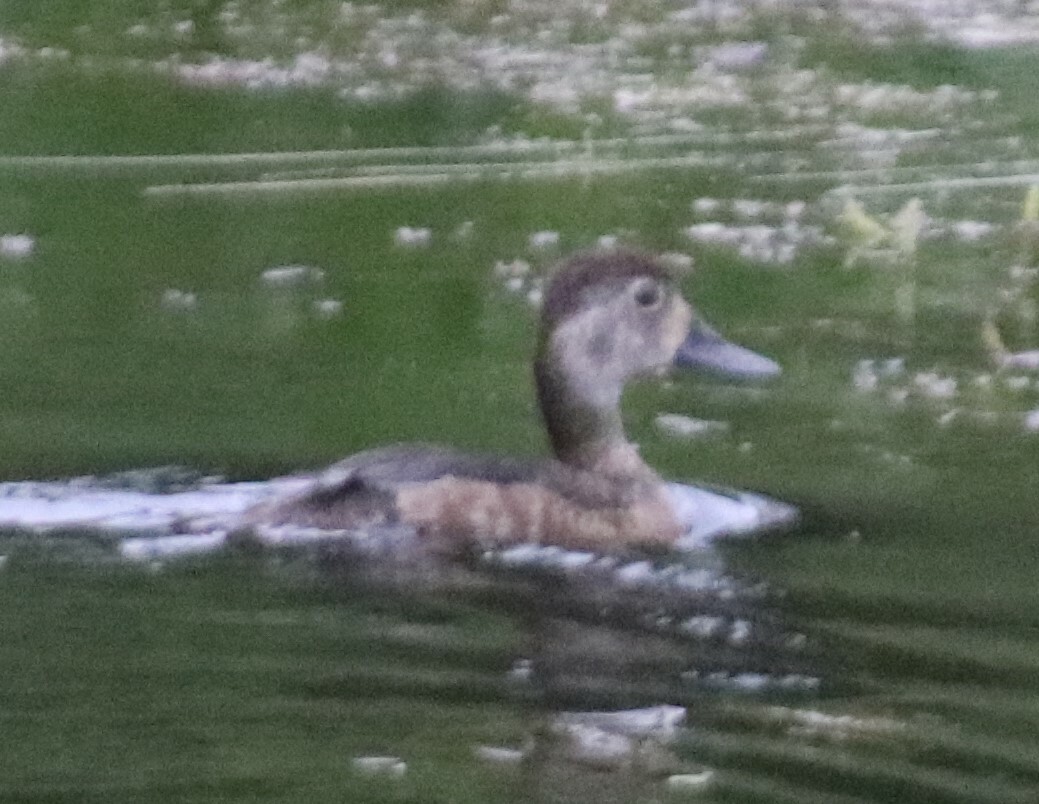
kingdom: Animalia
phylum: Chordata
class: Aves
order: Anseriformes
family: Anatidae
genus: Aythya
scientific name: Aythya collaris
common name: Ring-necked duck
